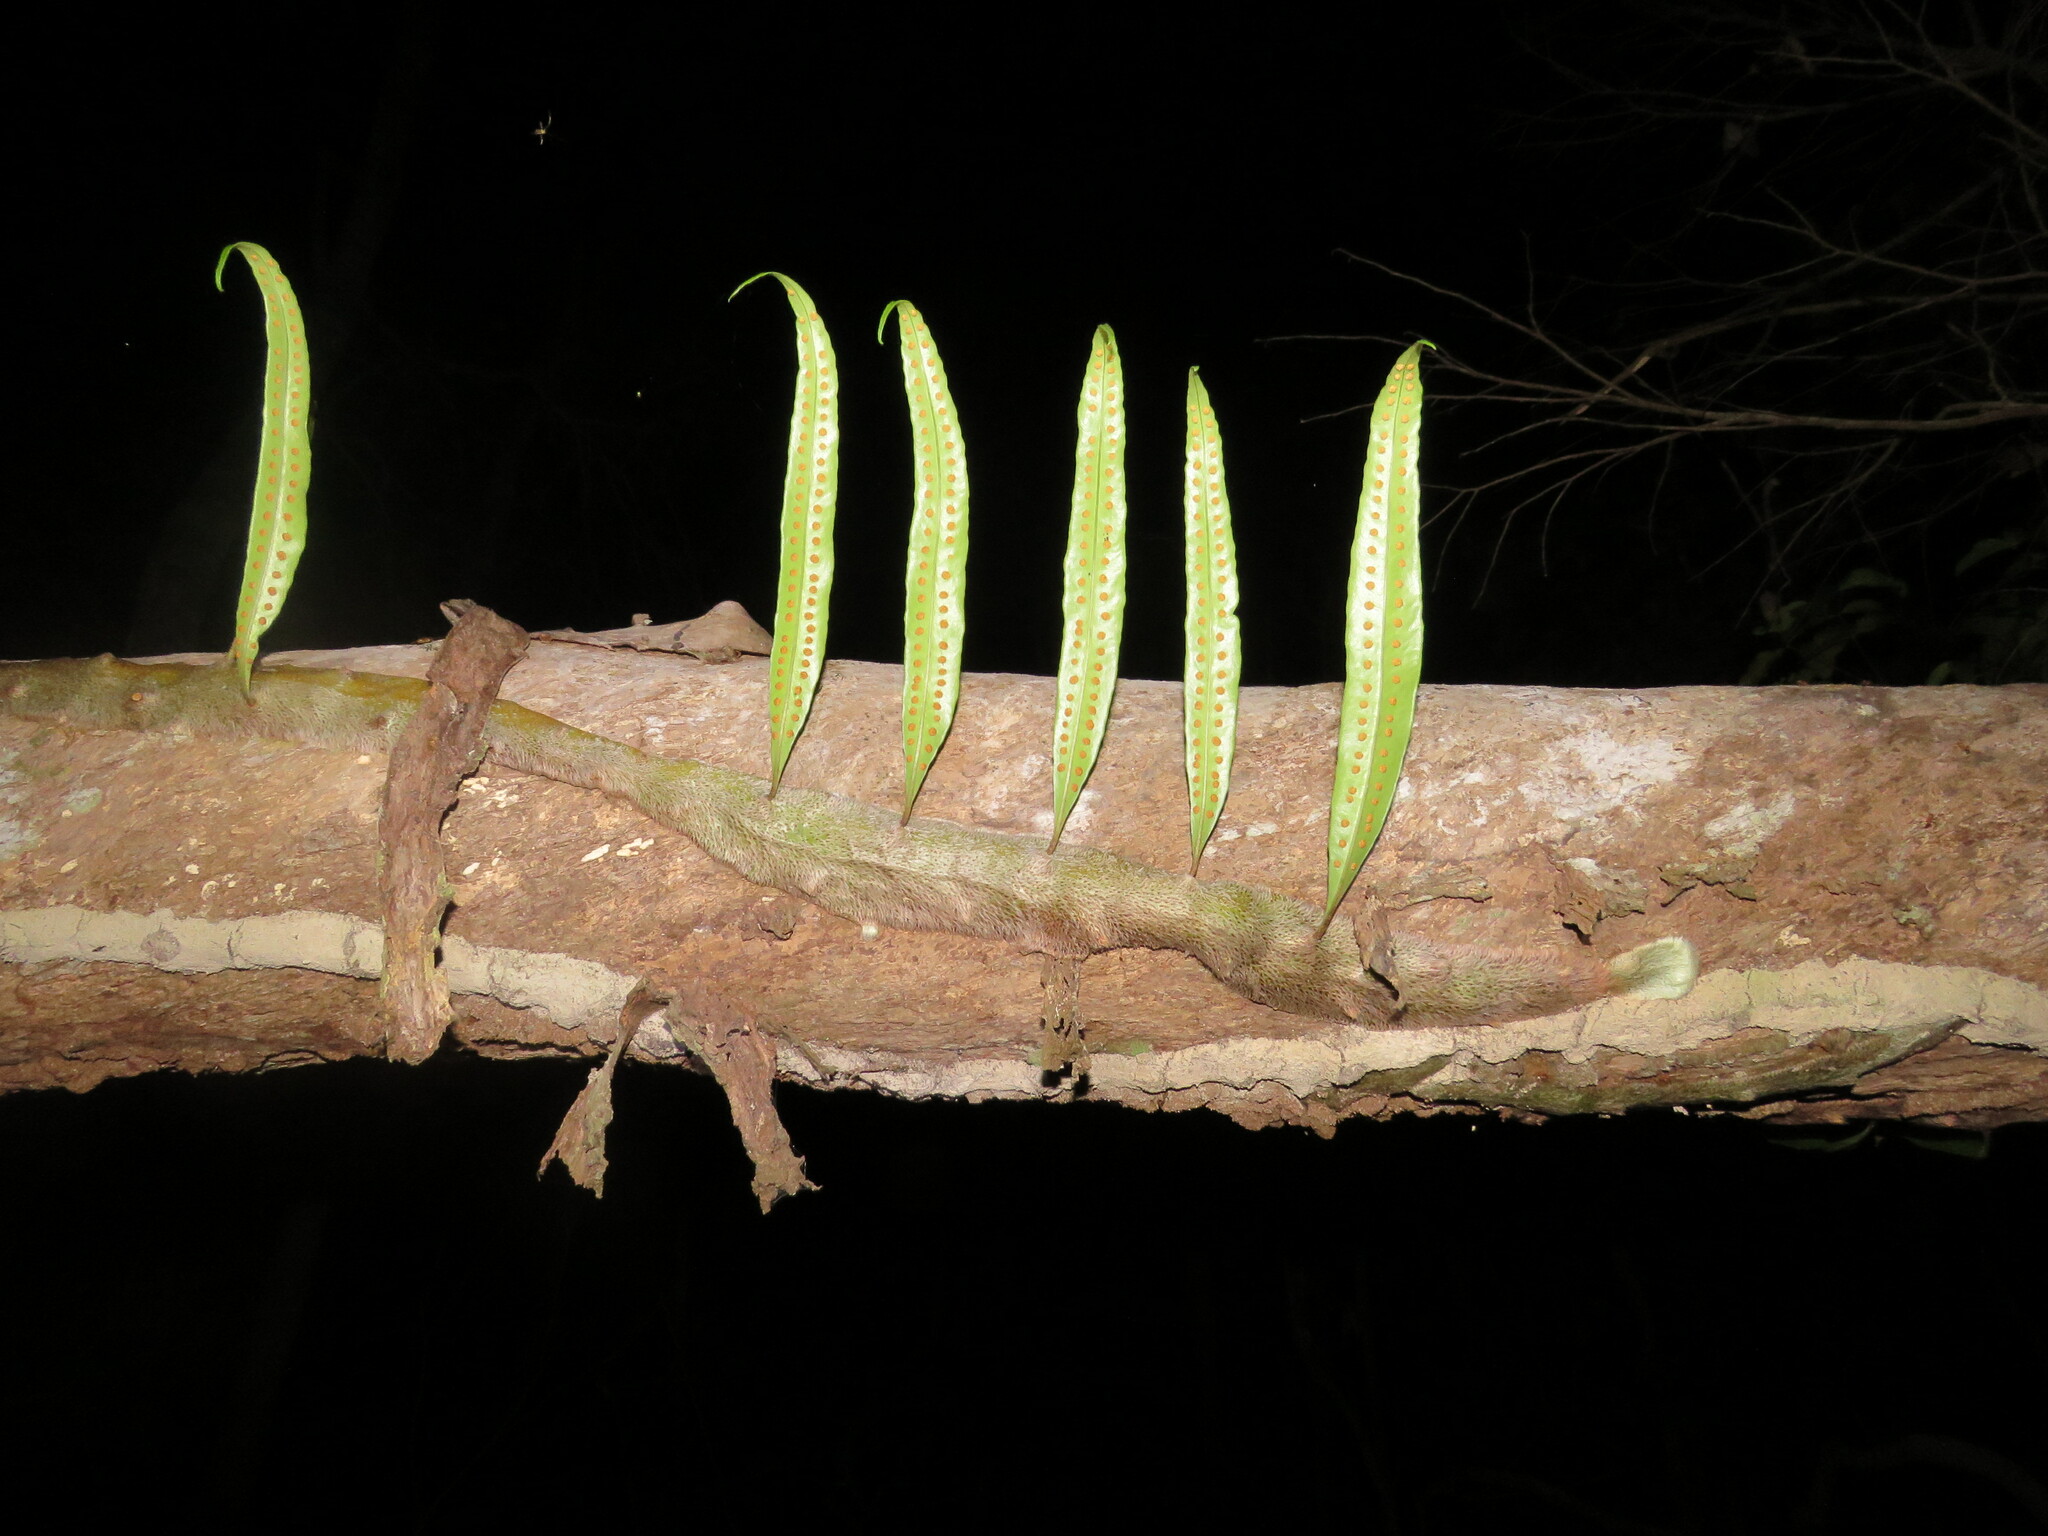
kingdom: Plantae
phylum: Tracheophyta
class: Polypodiopsida
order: Polypodiales
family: Polypodiaceae
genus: Microgramma
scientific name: Microgramma megalophylla
